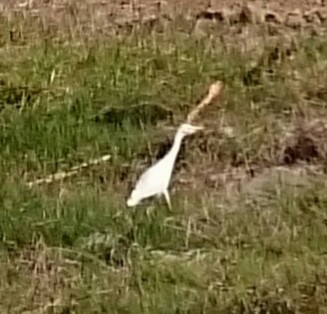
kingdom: Animalia
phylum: Chordata
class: Aves
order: Pelecaniformes
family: Ardeidae
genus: Bubulcus
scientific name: Bubulcus ibis
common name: Cattle egret
